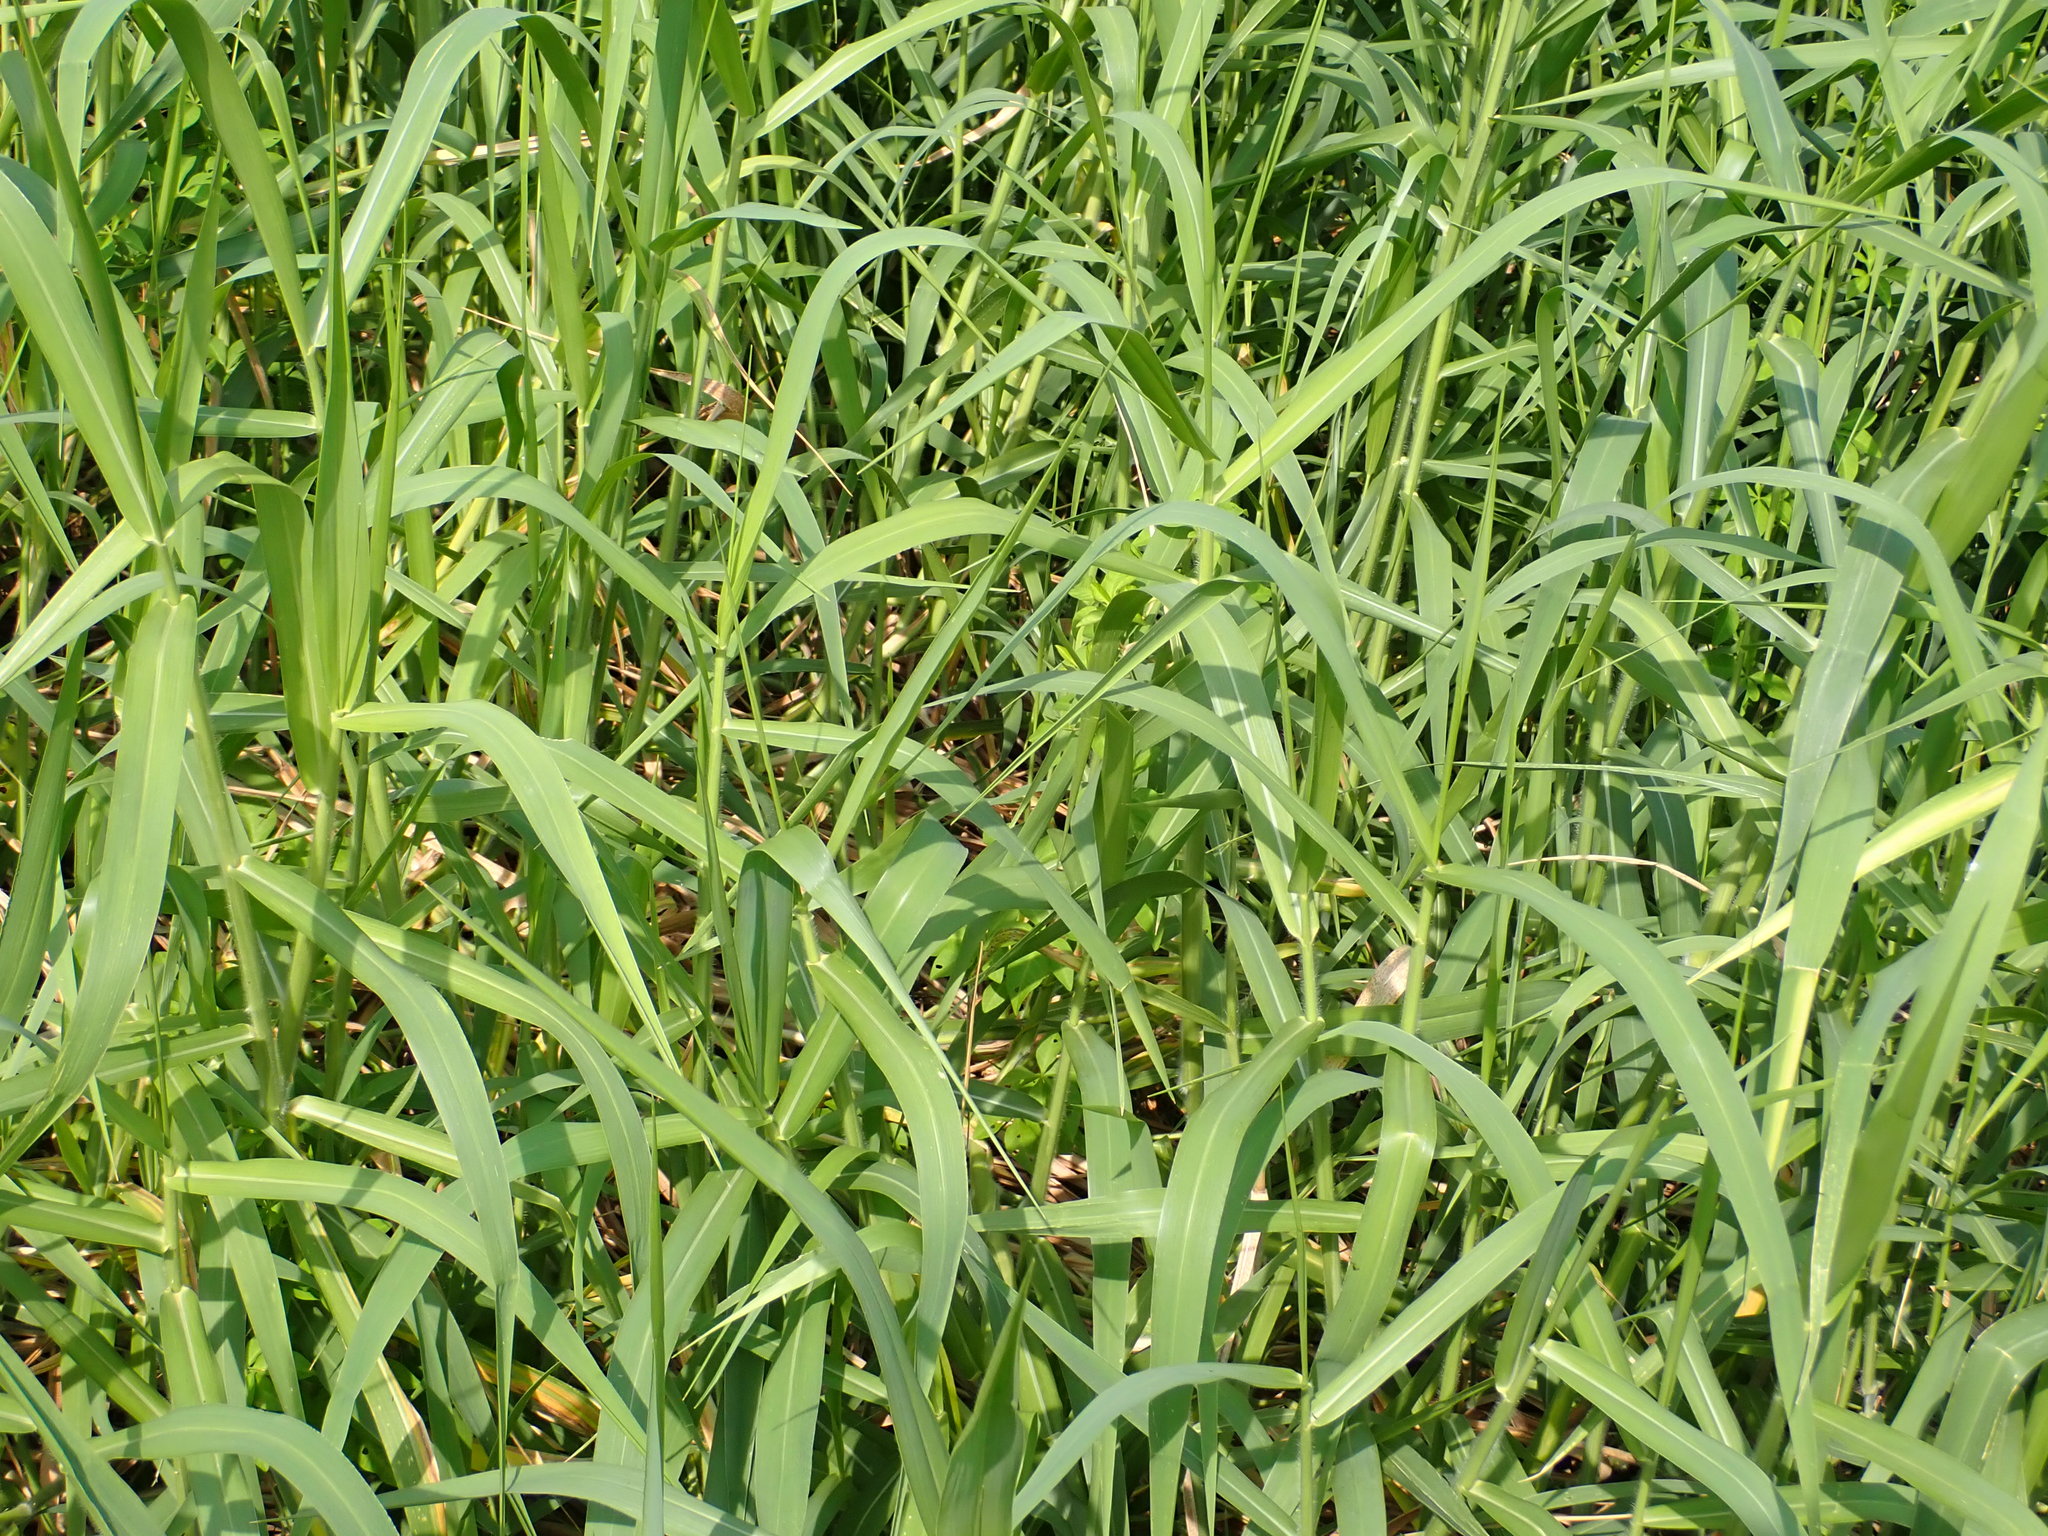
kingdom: Plantae
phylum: Tracheophyta
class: Liliopsida
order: Poales
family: Poaceae
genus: Urochloa
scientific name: Urochloa mutica
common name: Para grass
